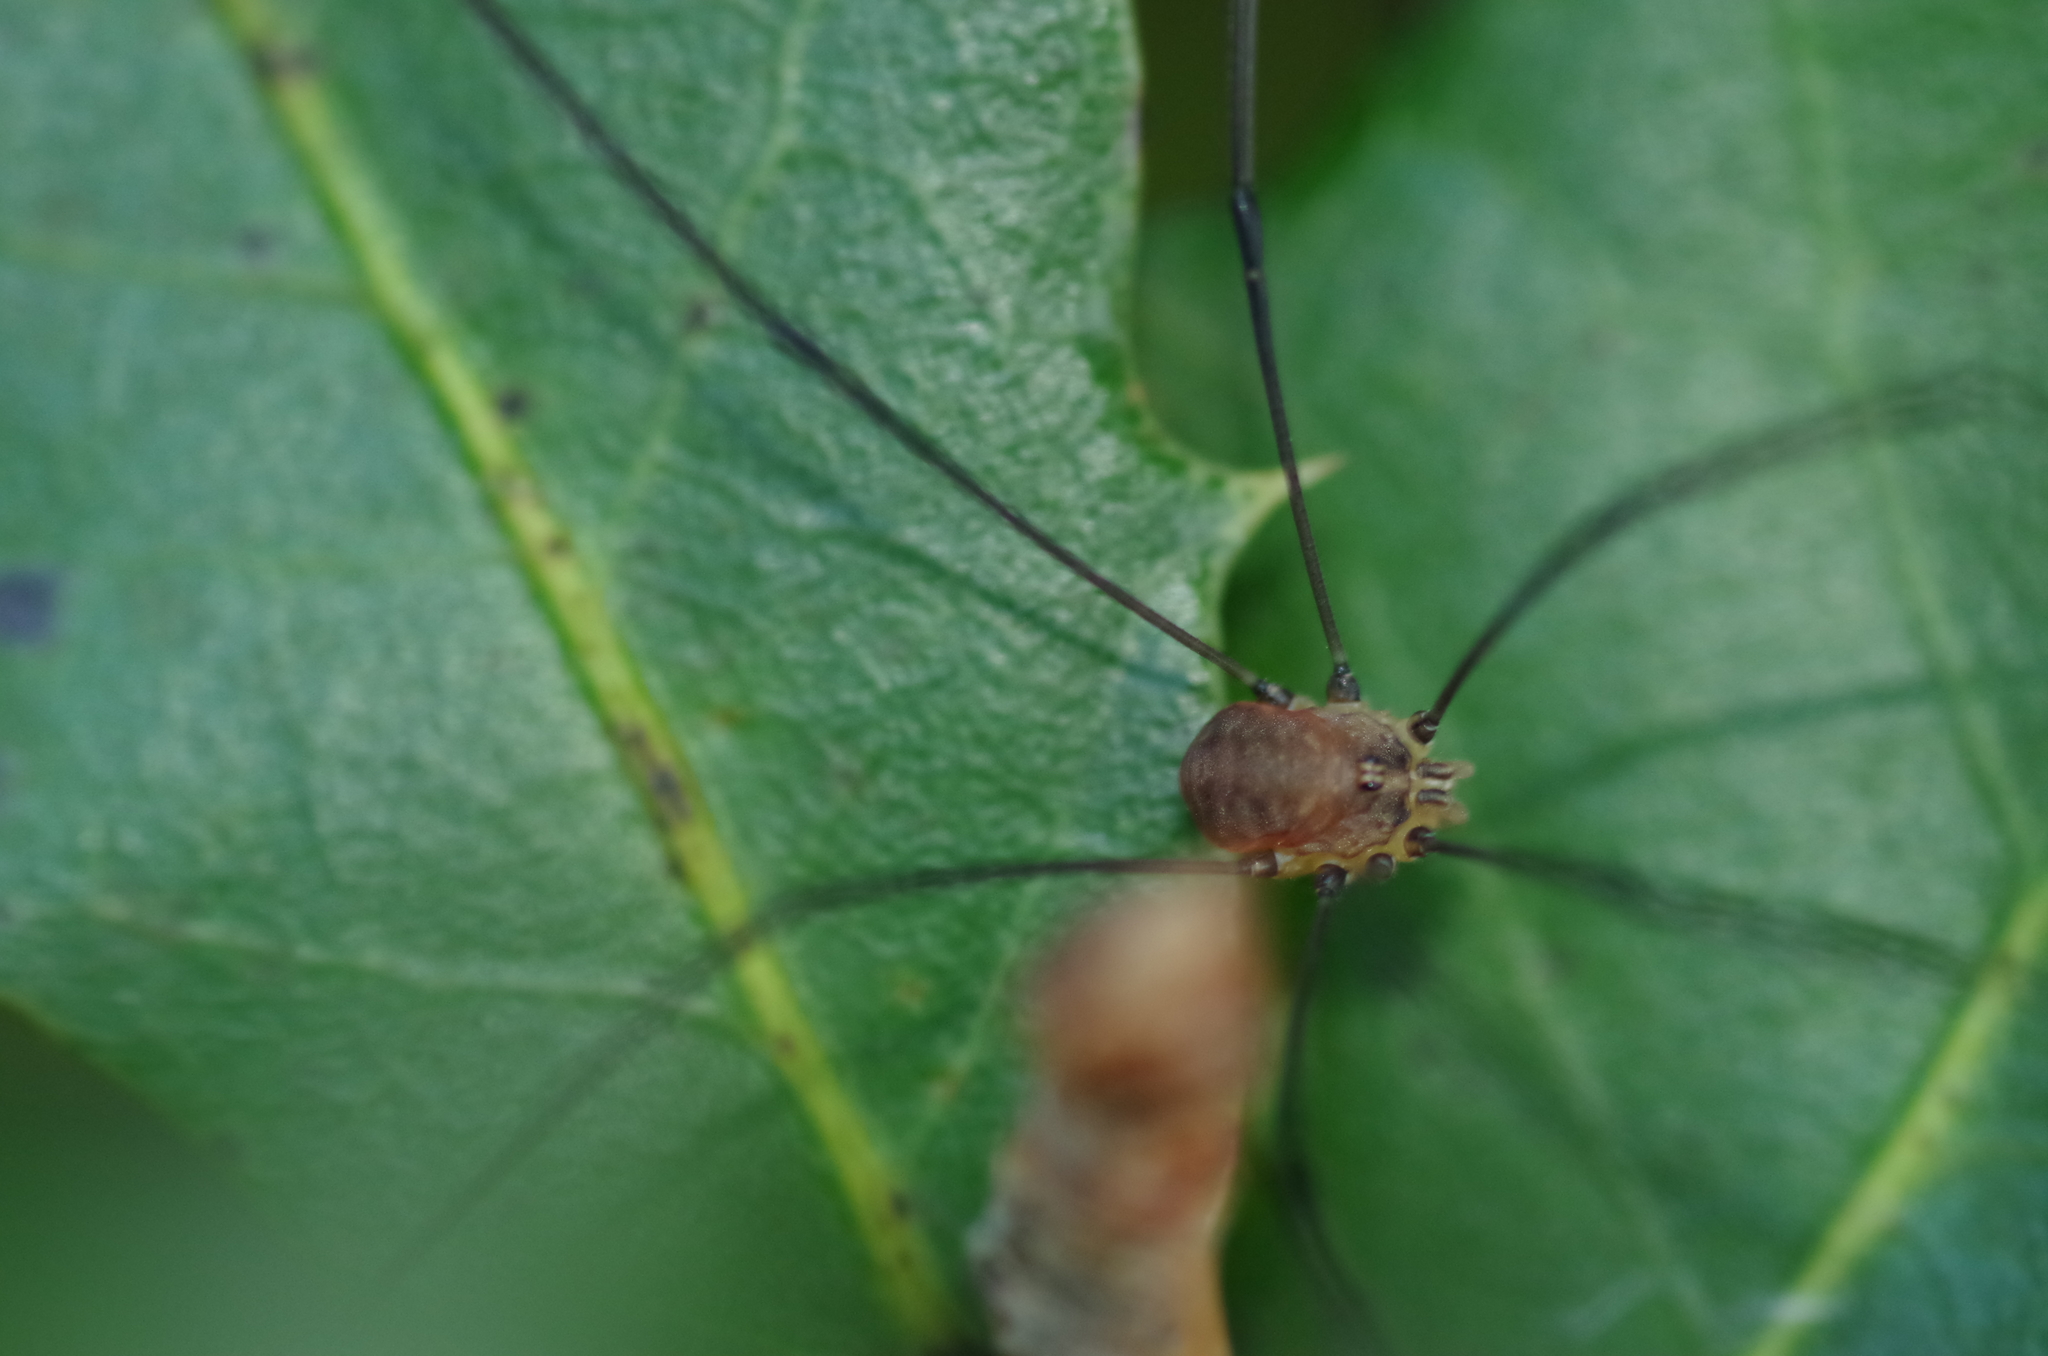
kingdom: Animalia
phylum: Arthropoda
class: Arachnida
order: Opiliones
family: Sclerosomatidae
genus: Leiobunum
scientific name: Leiobunum blackwalli
